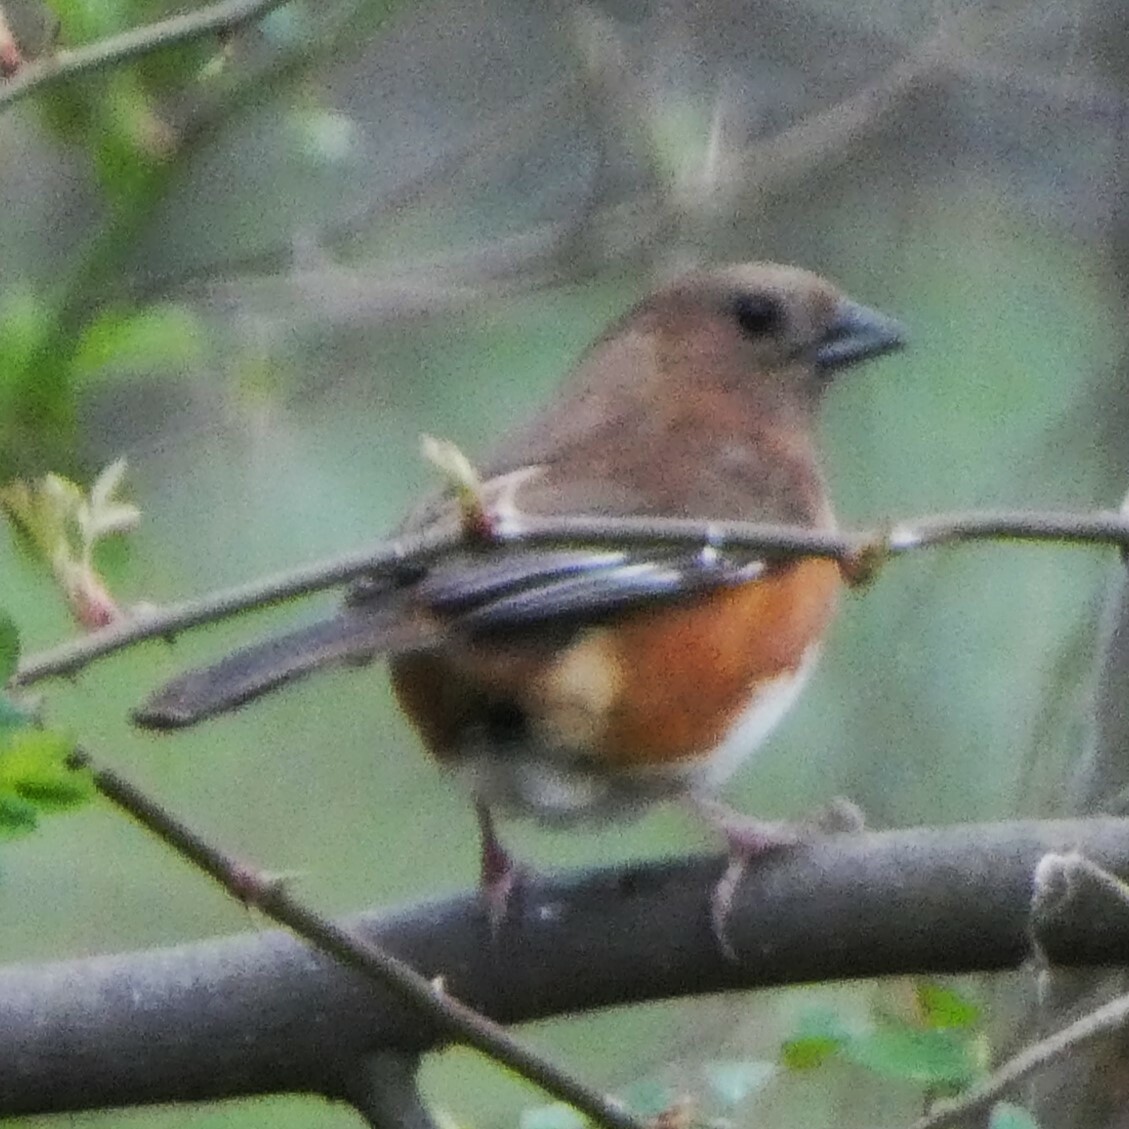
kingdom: Animalia
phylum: Chordata
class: Aves
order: Passeriformes
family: Passerellidae
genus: Pipilo
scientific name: Pipilo erythrophthalmus
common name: Eastern towhee
